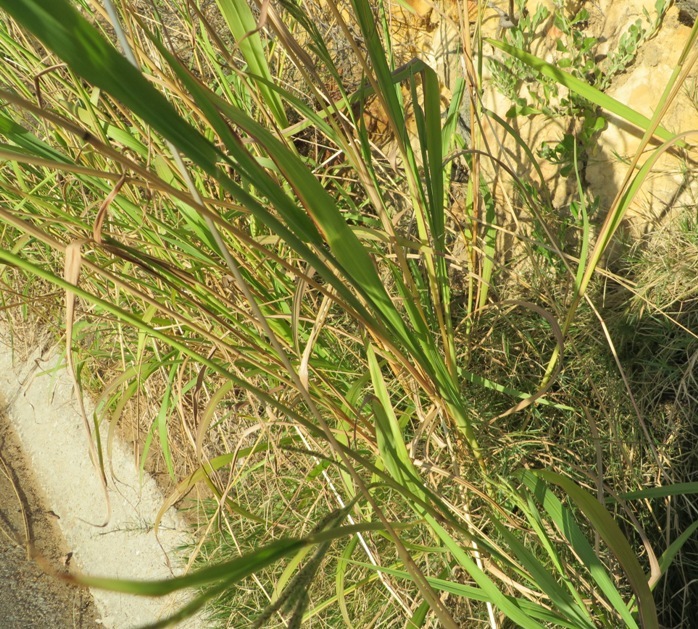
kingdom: Plantae
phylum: Tracheophyta
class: Liliopsida
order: Poales
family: Poaceae
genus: Paspalum
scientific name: Paspalum dilatatum
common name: Dallisgrass
